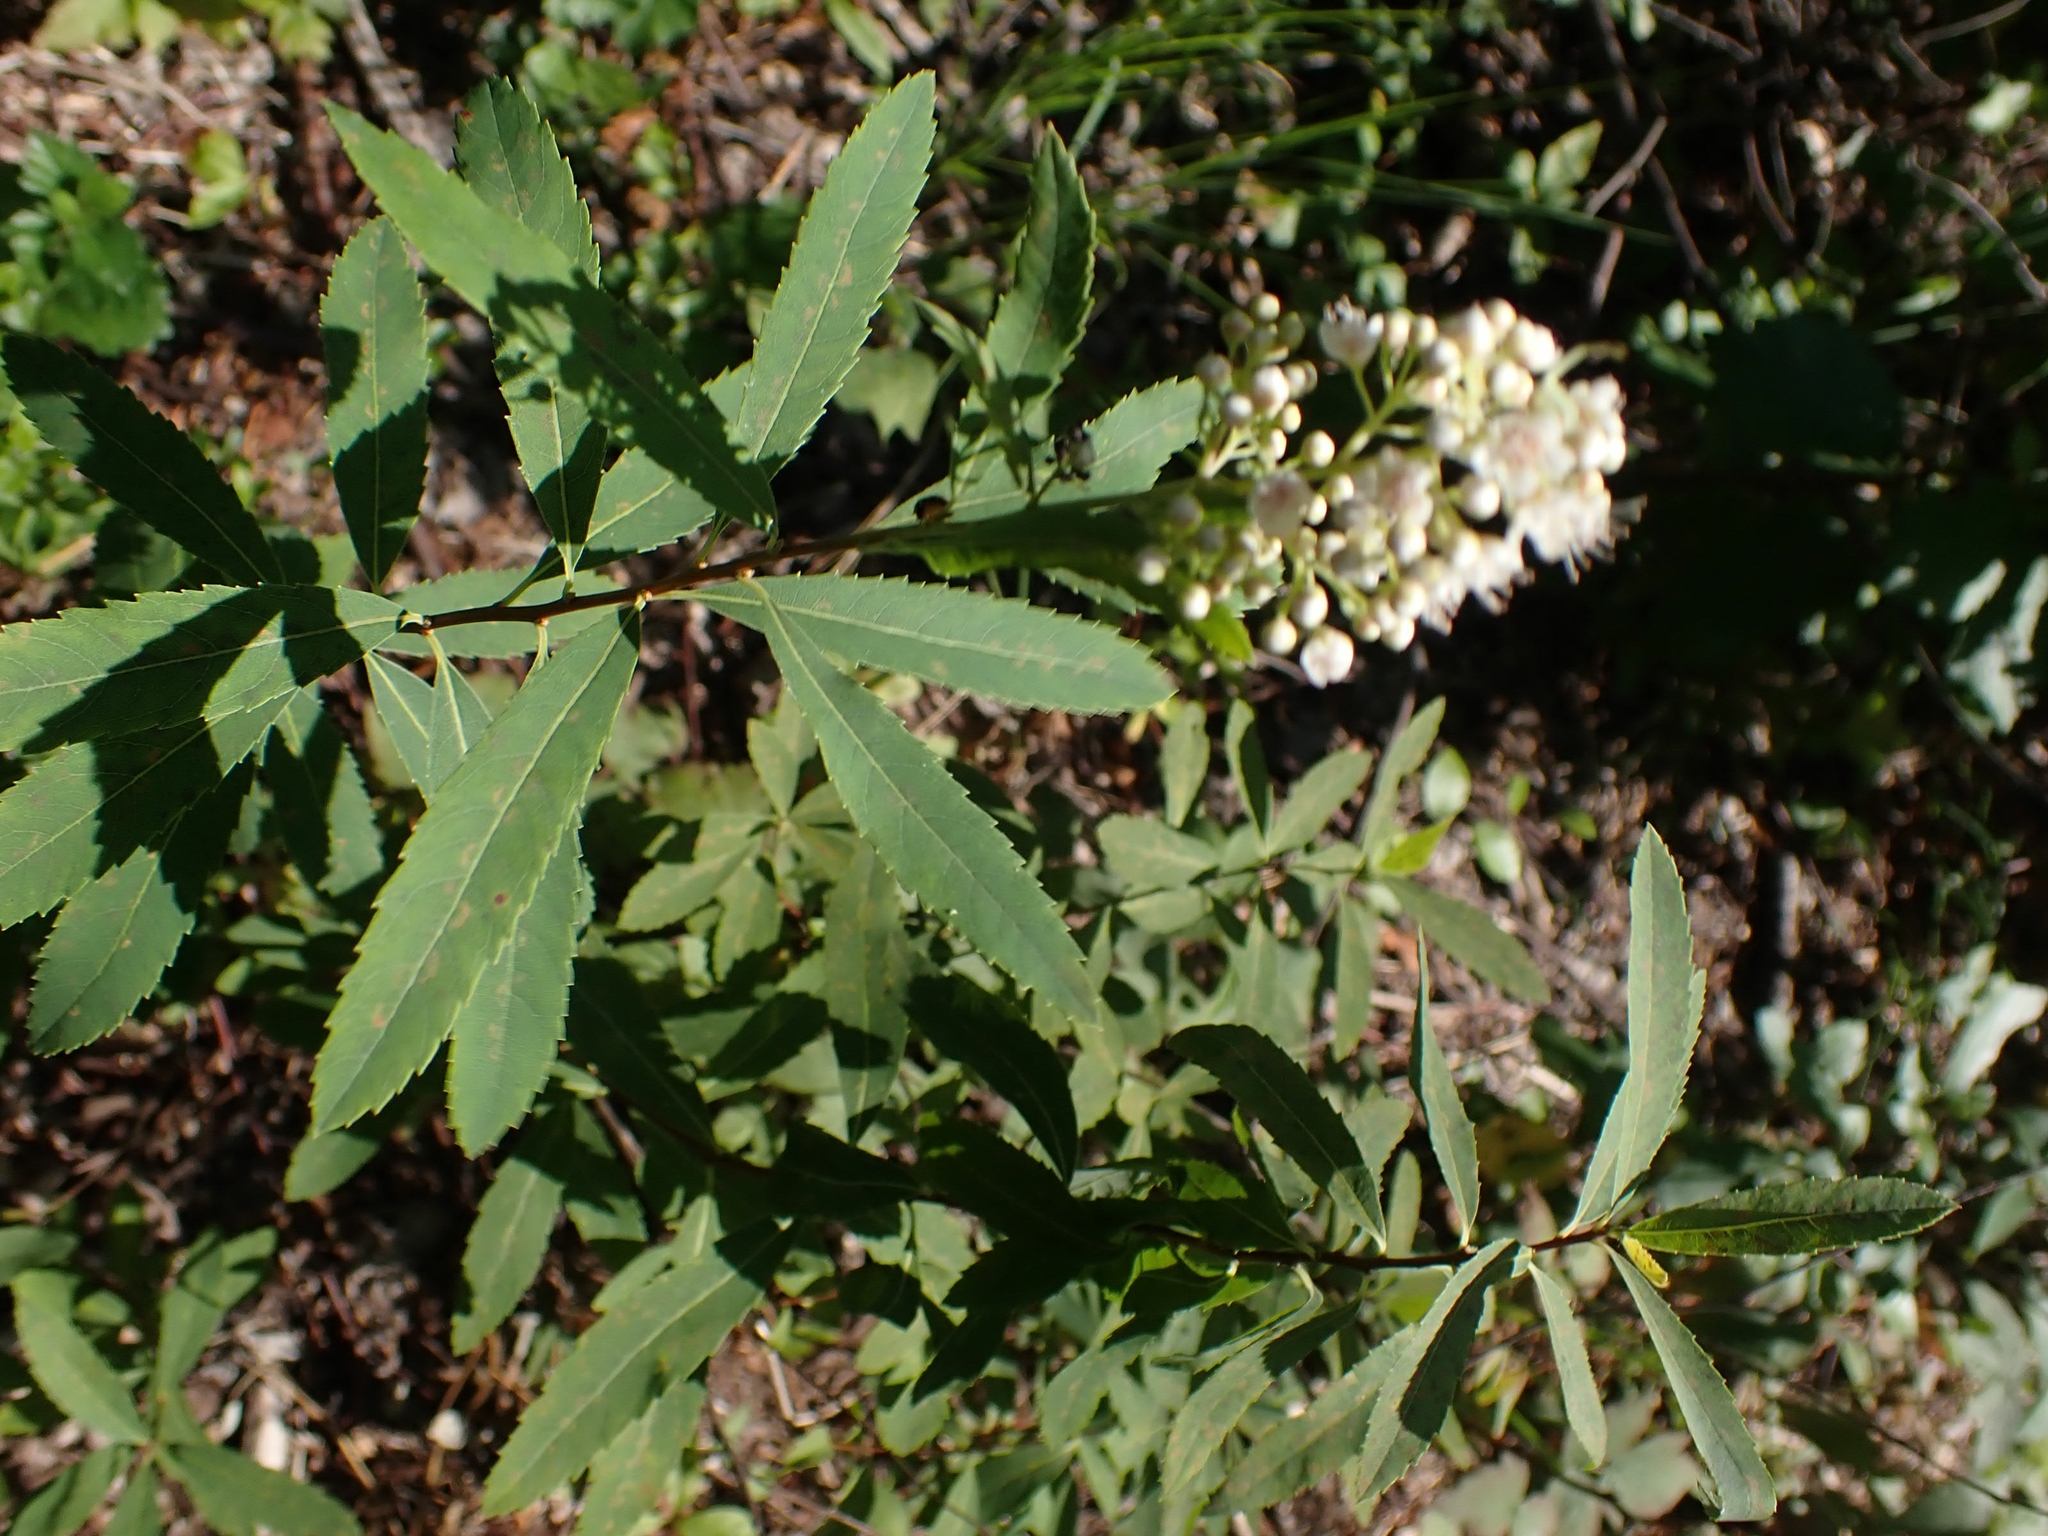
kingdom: Plantae
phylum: Tracheophyta
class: Magnoliopsida
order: Rosales
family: Rosaceae
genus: Spiraea
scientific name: Spiraea alba
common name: Pale bridewort
